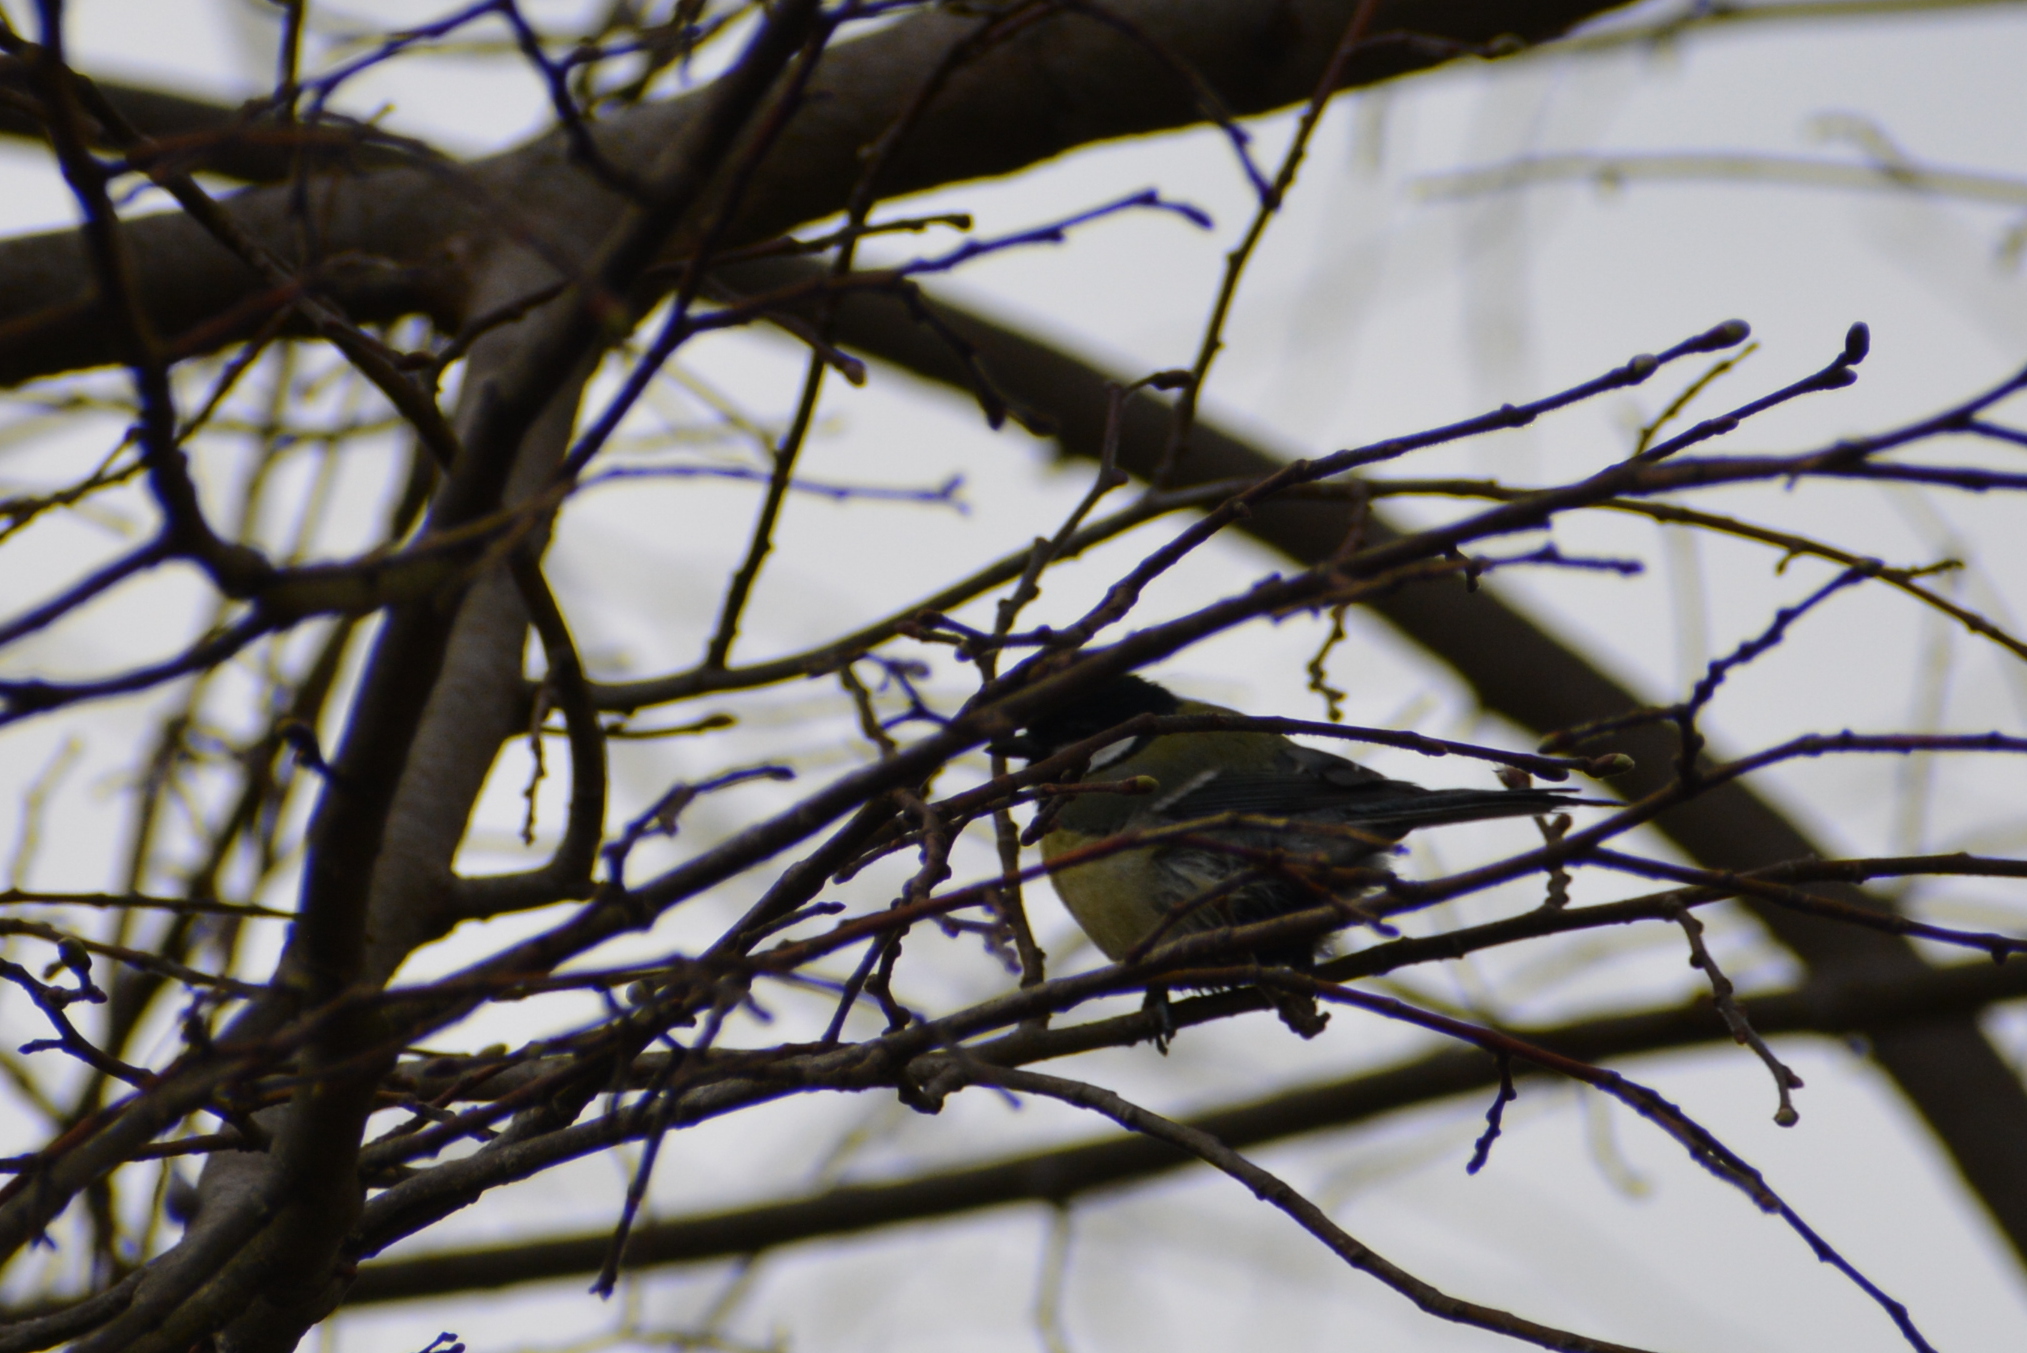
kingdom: Animalia
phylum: Chordata
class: Aves
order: Passeriformes
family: Paridae
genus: Parus
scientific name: Parus major
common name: Great tit
